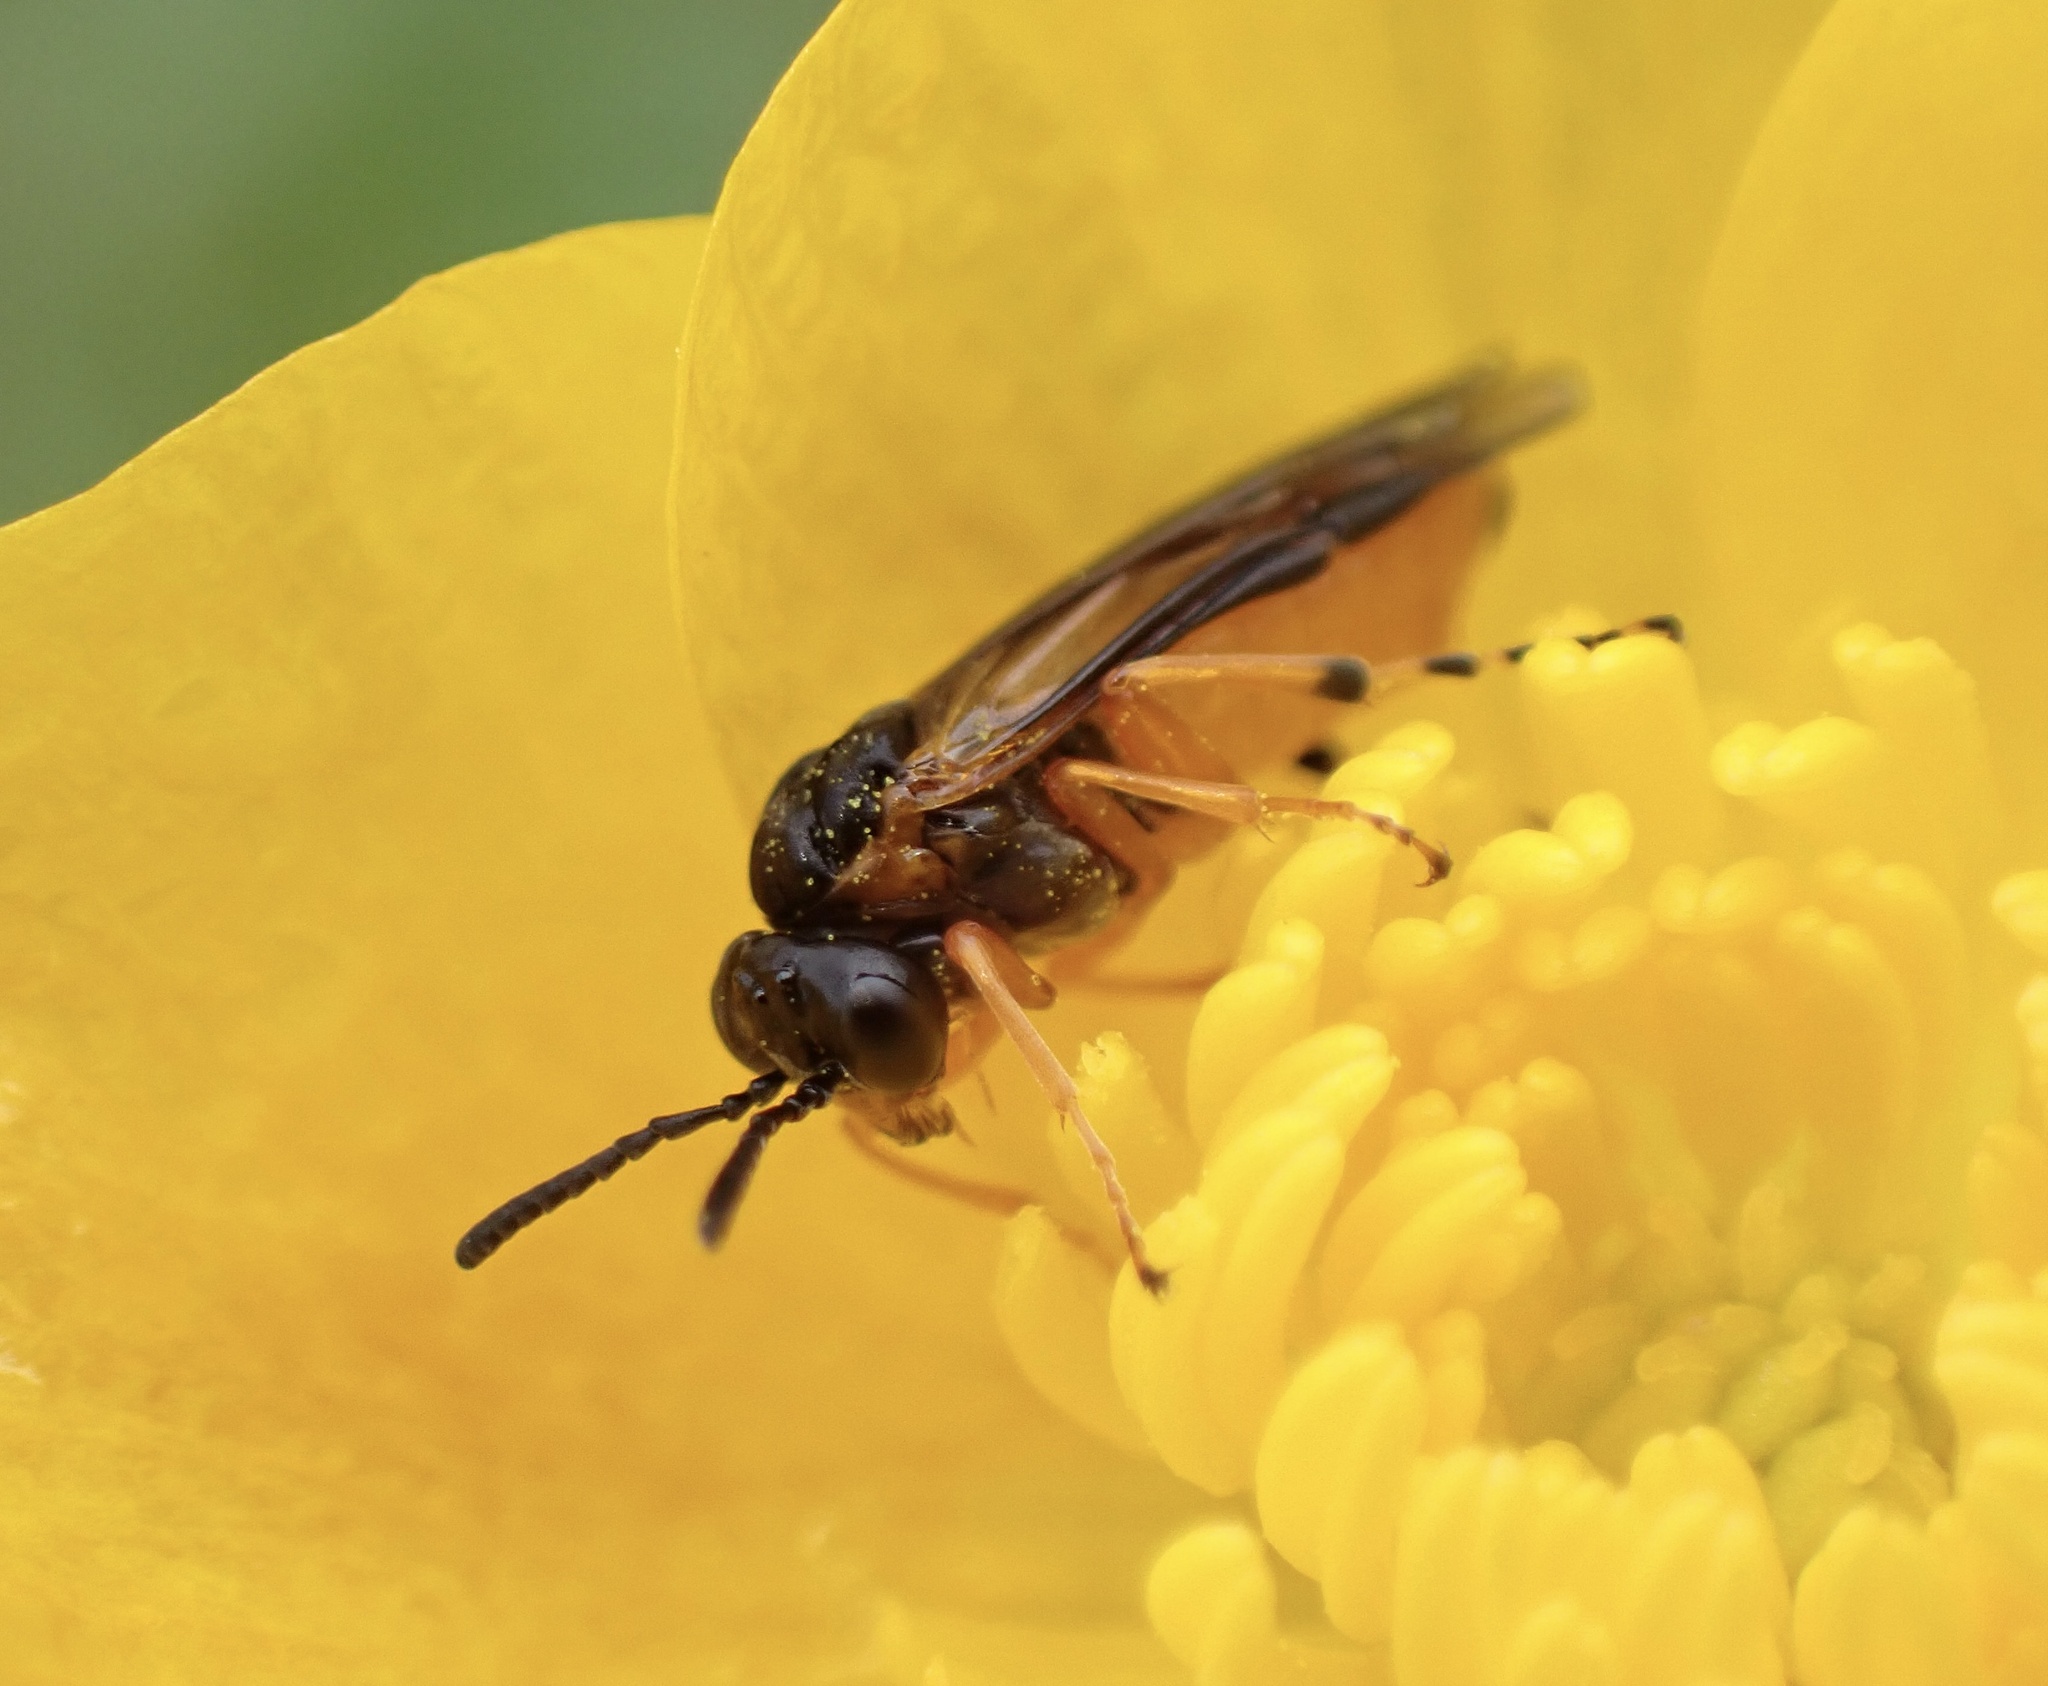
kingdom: Animalia
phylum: Arthropoda
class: Insecta
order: Hymenoptera
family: Tenthredinidae
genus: Athalia
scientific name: Athalia bicolor
